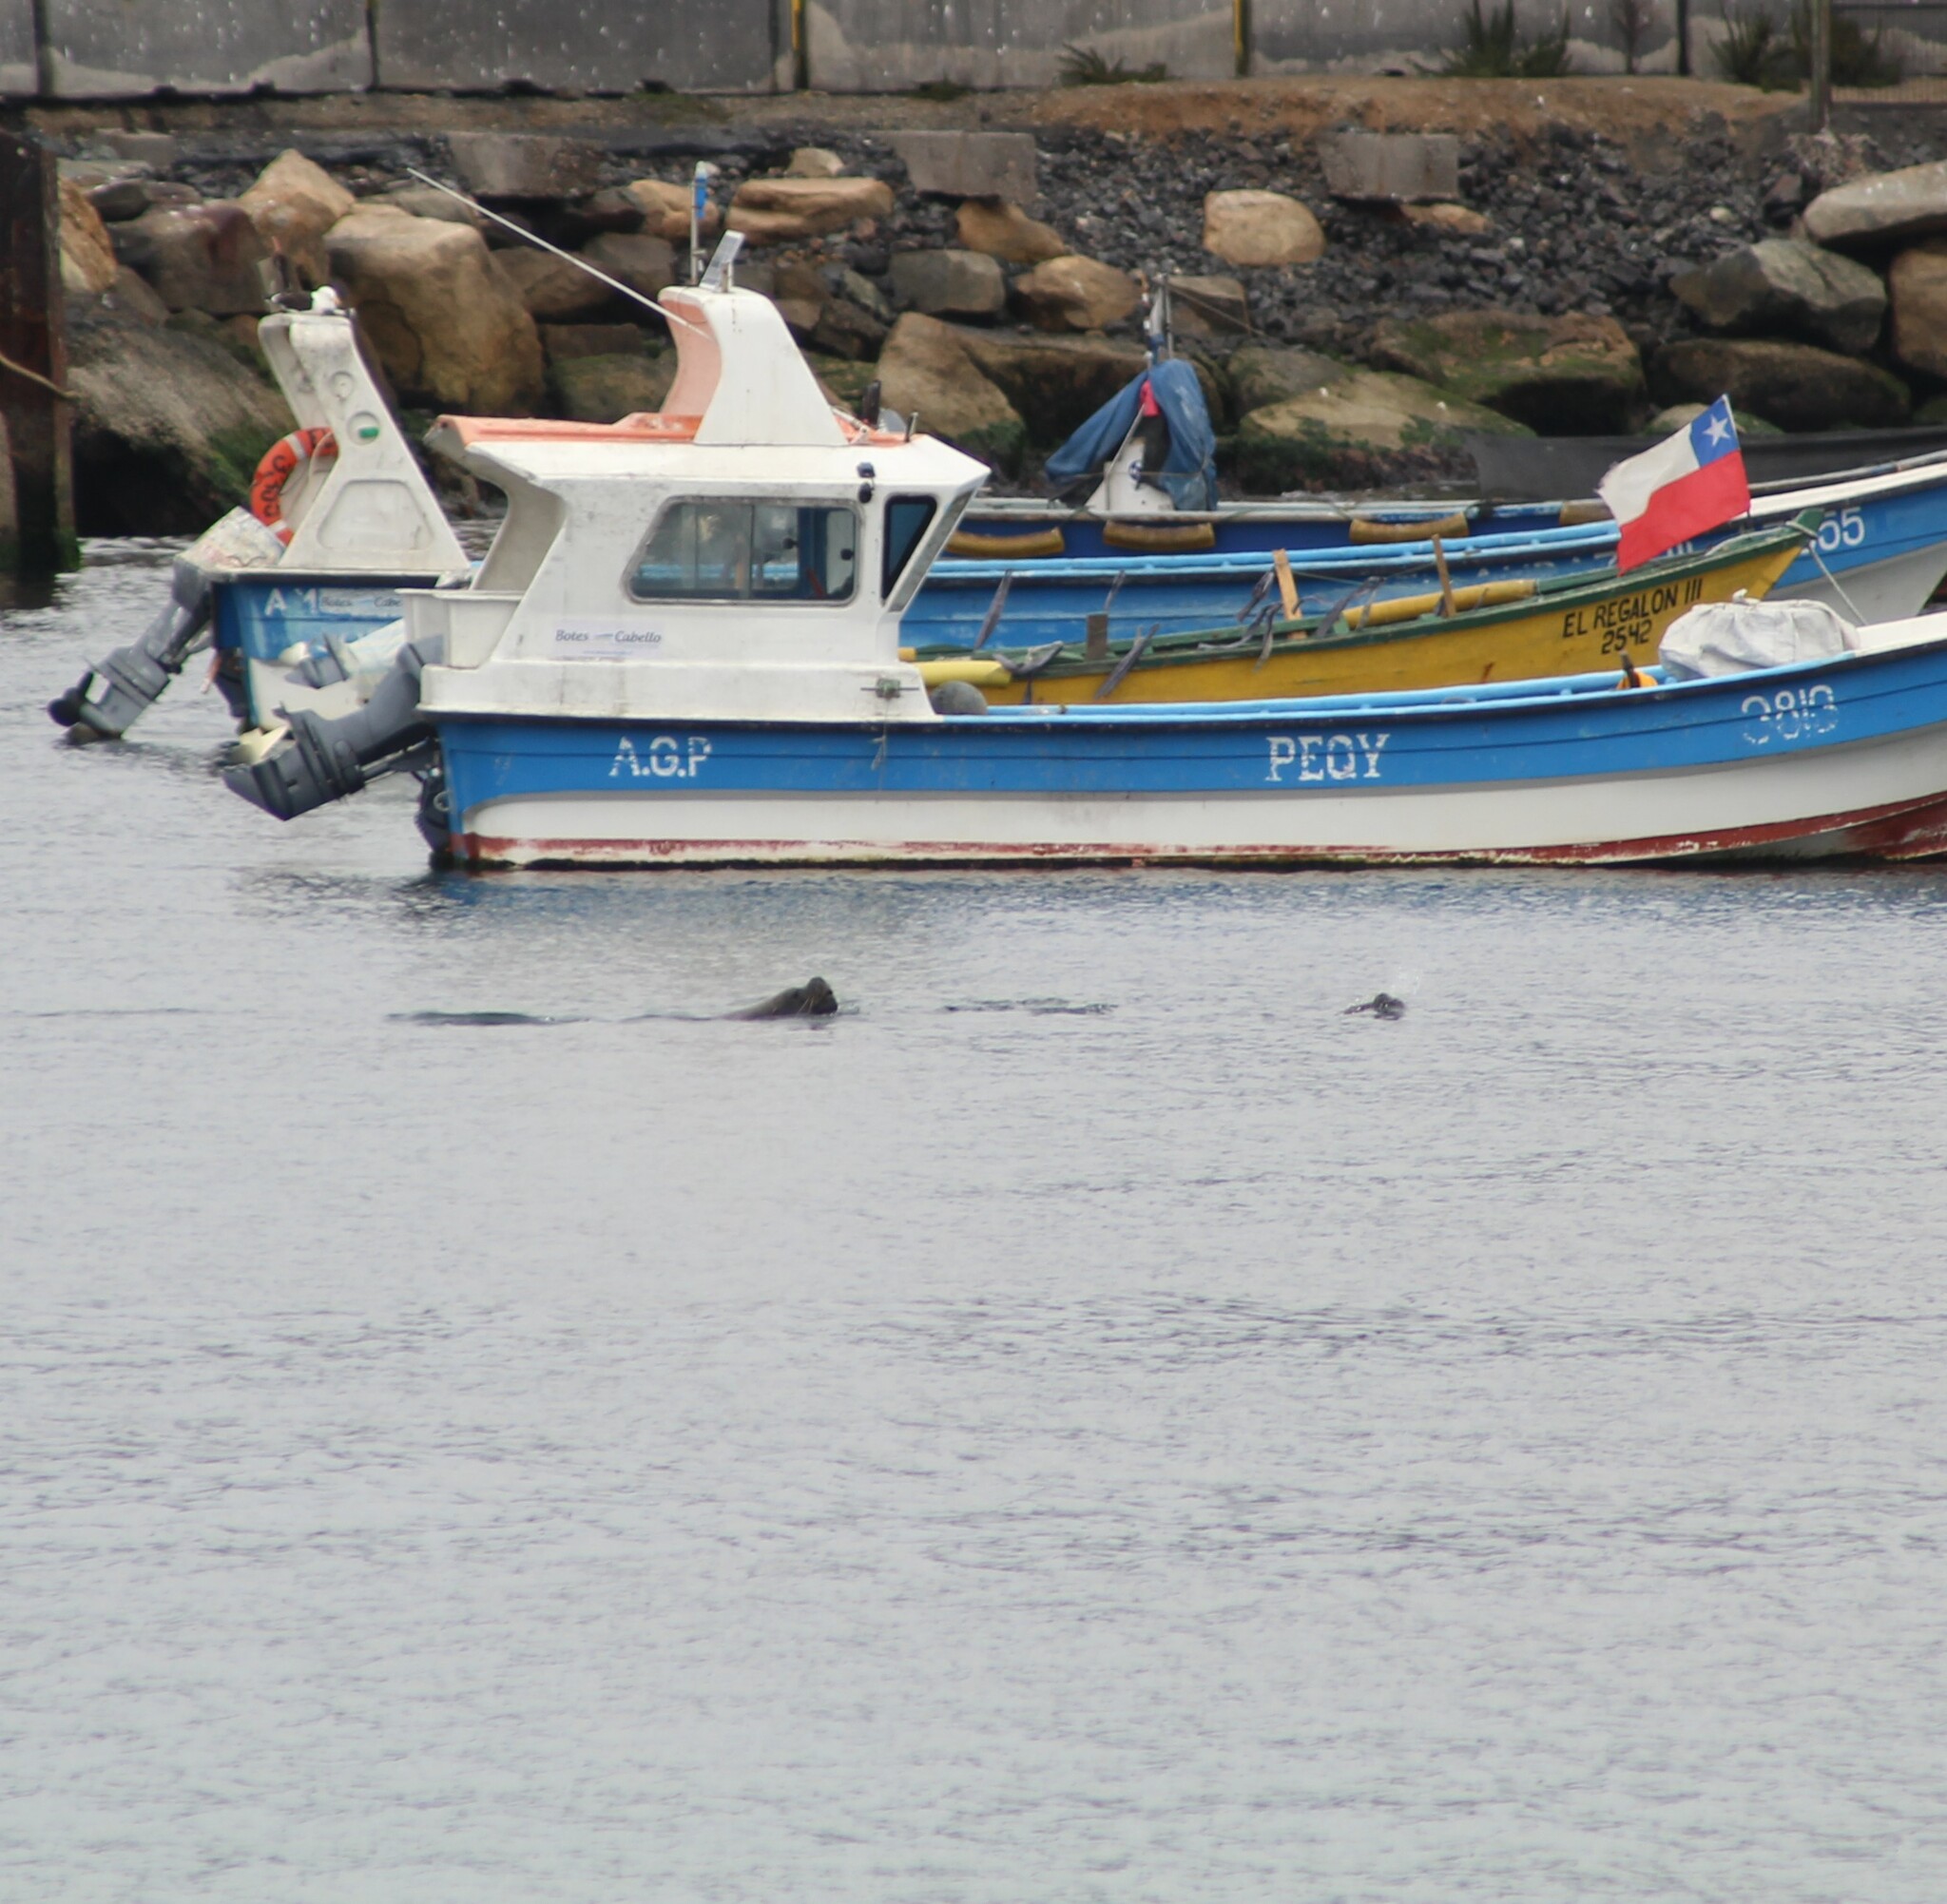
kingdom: Animalia
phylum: Chordata
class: Mammalia
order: Carnivora
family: Otariidae
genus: Otaria
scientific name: Otaria byronia
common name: South american sea lion
